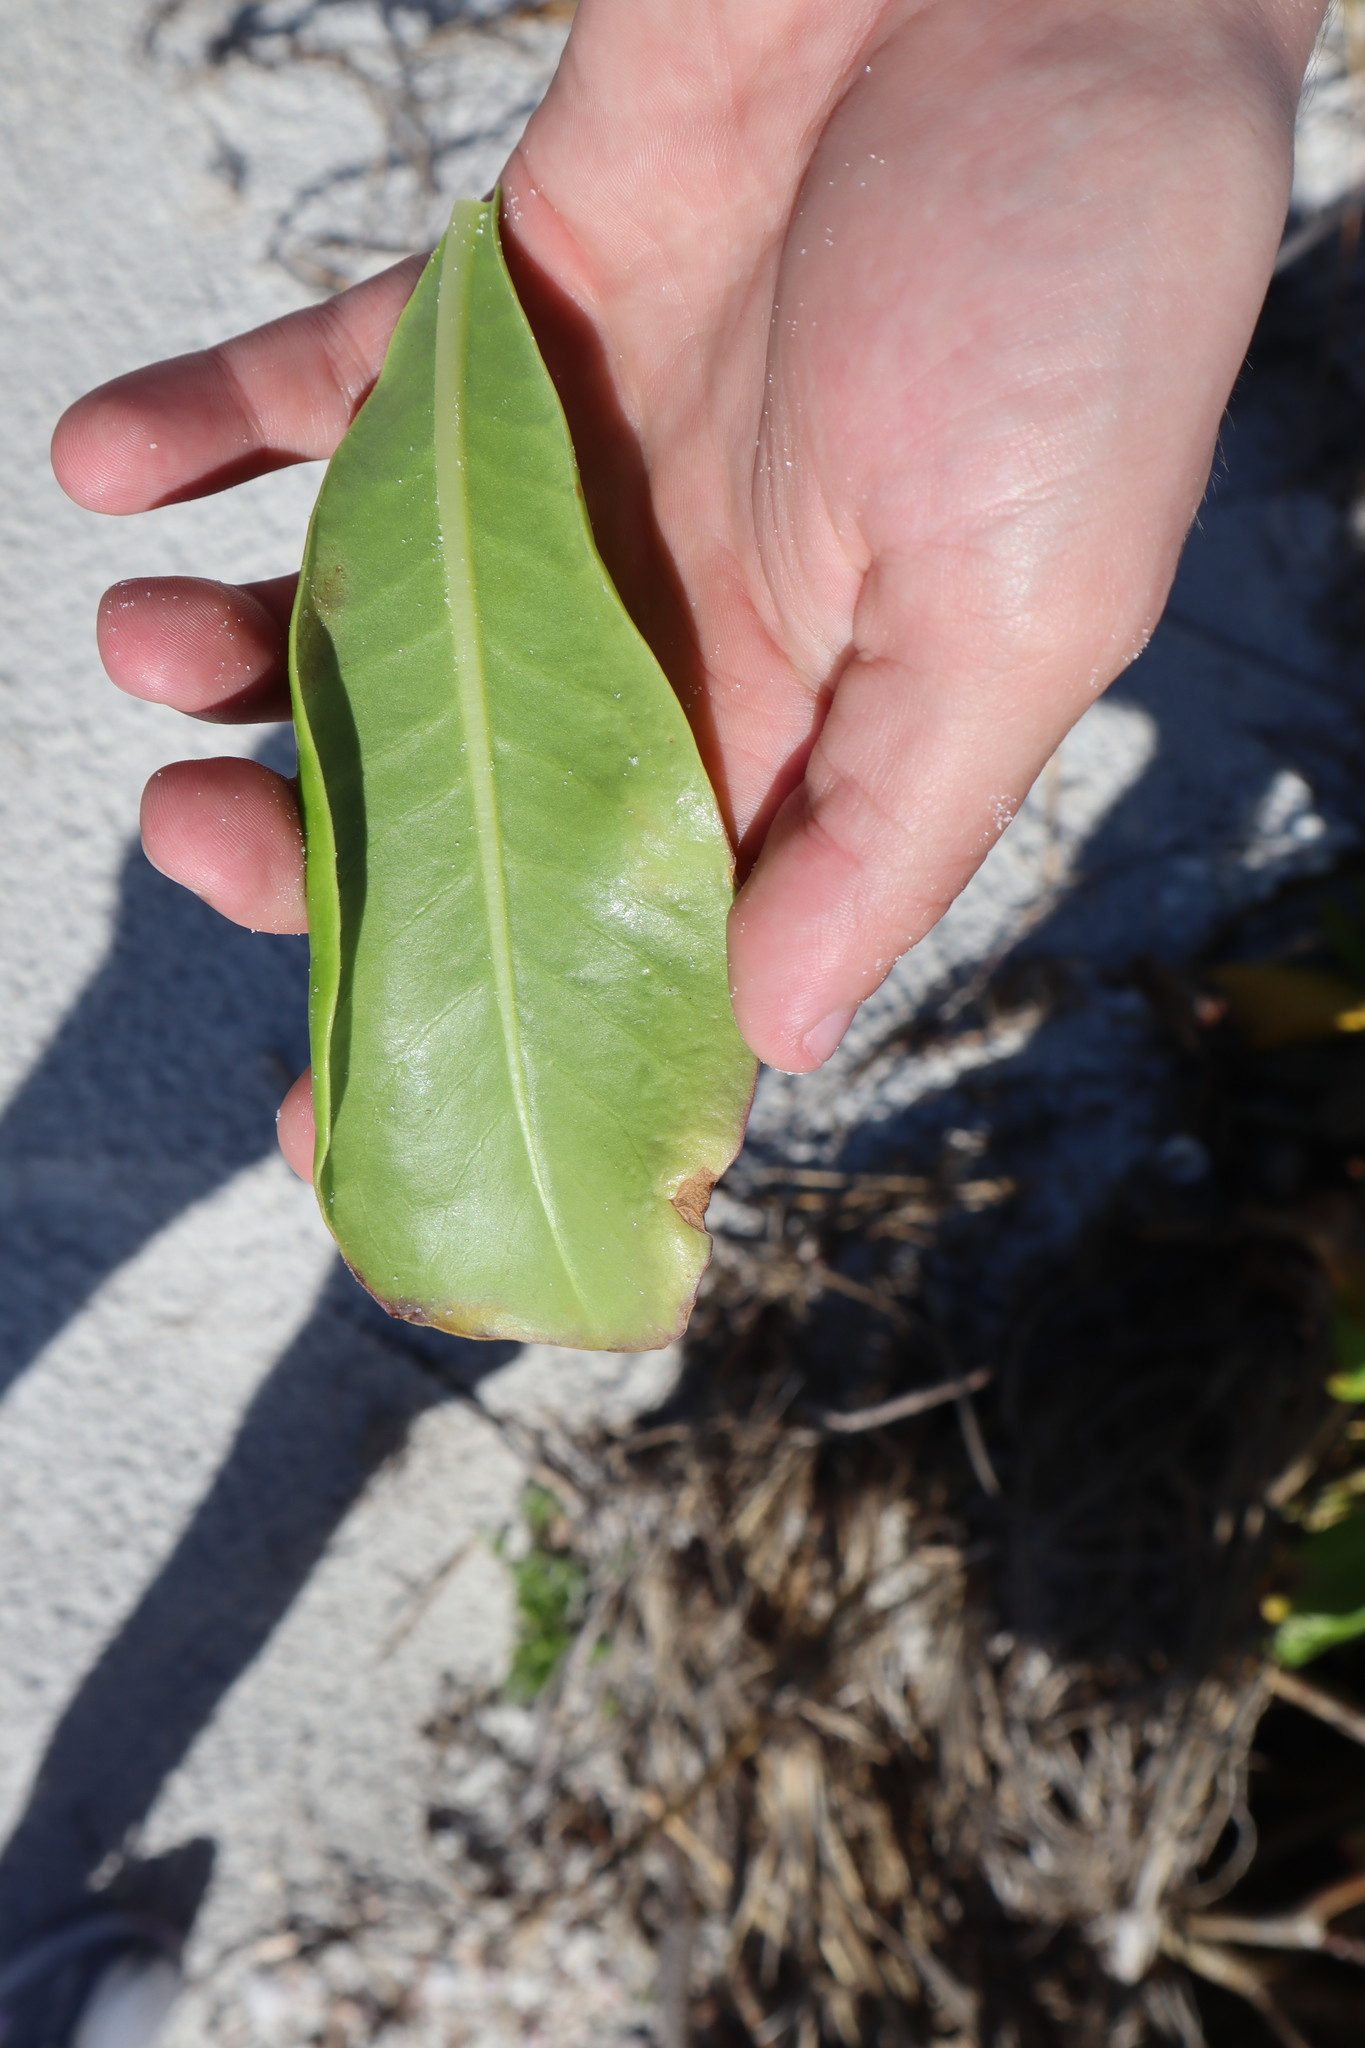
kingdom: Plantae
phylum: Tracheophyta
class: Magnoliopsida
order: Asterales
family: Goodeniaceae
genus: Scaevola
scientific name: Scaevola taccada
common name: Sea lettucetree
